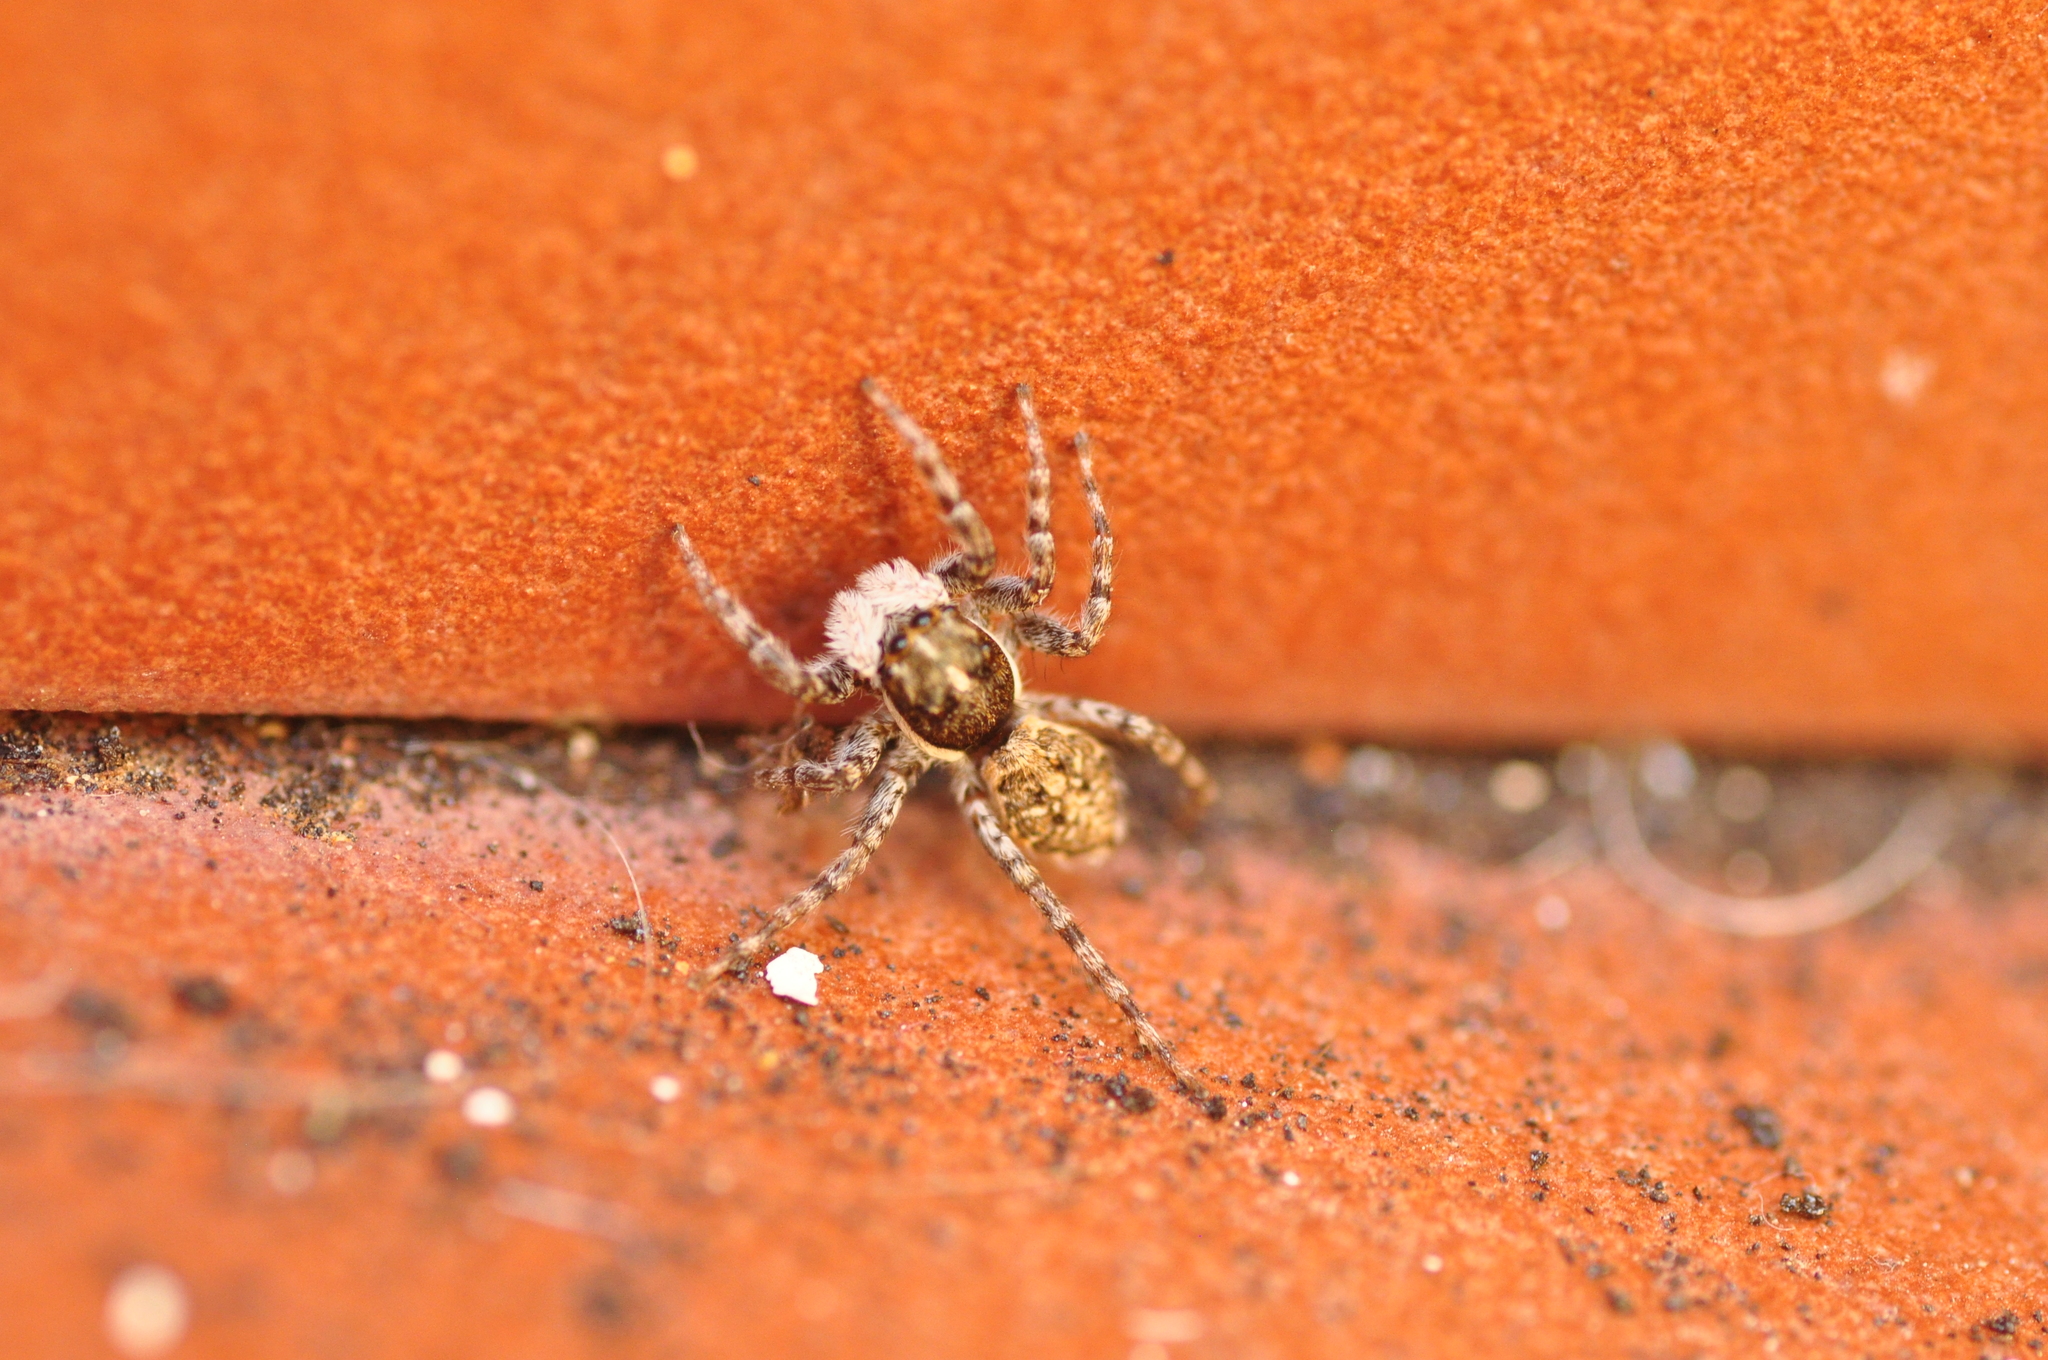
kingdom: Animalia
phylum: Arthropoda
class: Arachnida
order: Araneae
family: Salticidae
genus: Menemerus
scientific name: Menemerus semilimbatus
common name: Jumping spider
